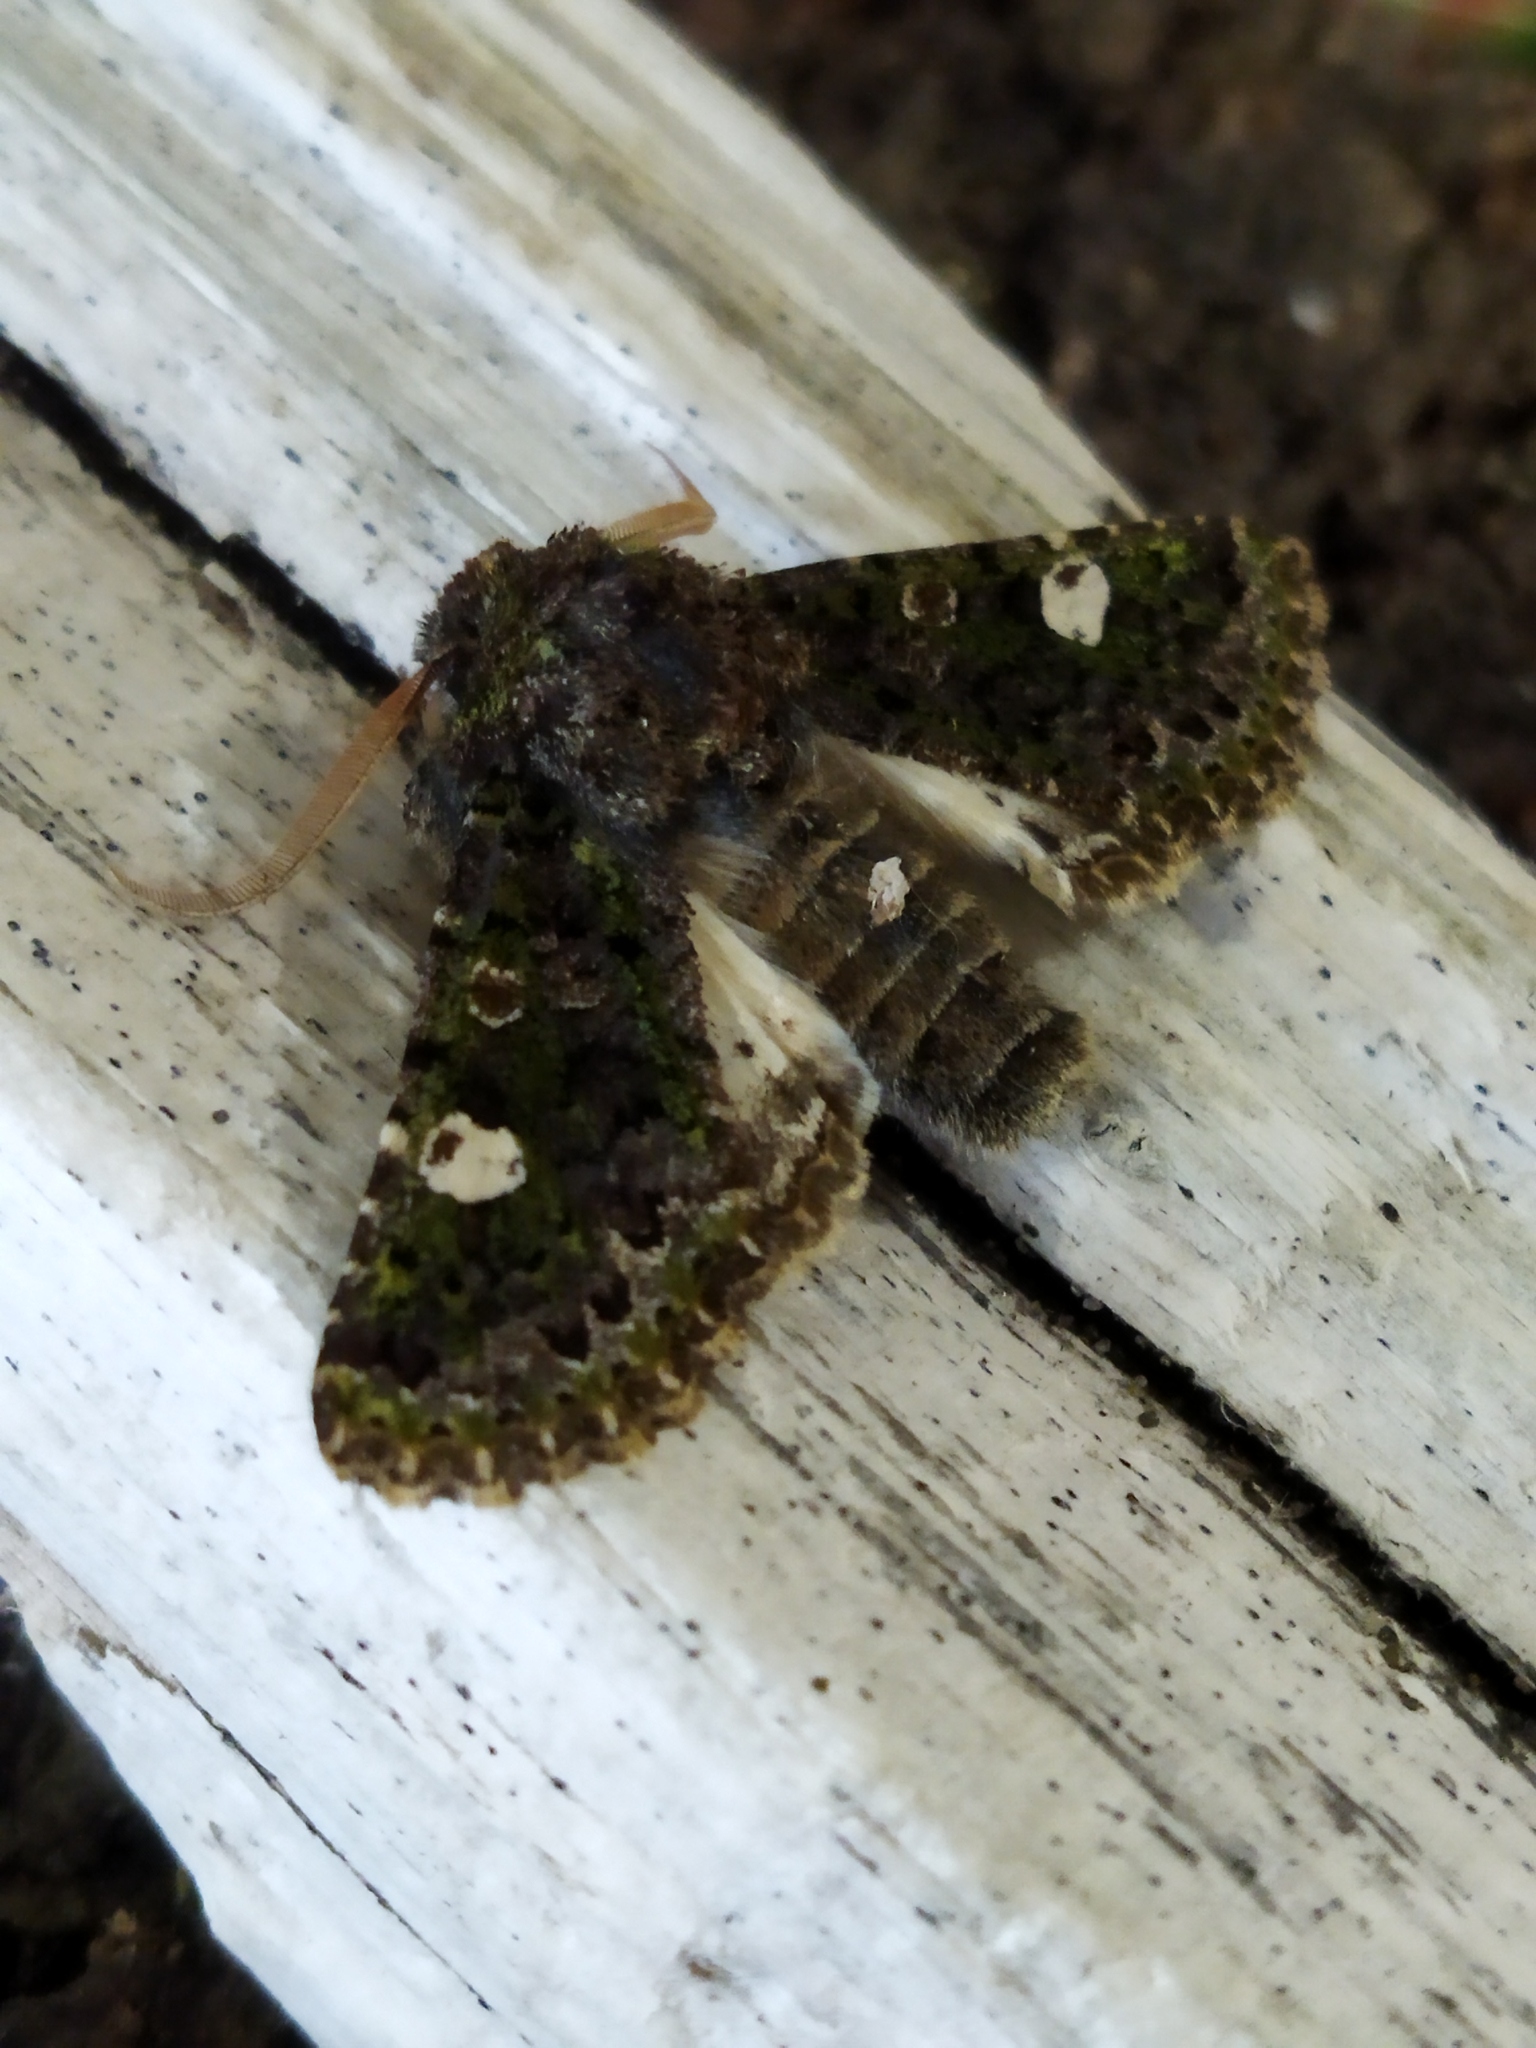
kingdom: Animalia
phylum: Arthropoda
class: Insecta
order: Lepidoptera
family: Noctuidae
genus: Valeria
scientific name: Valeria oleagina
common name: Green-brindled dot
